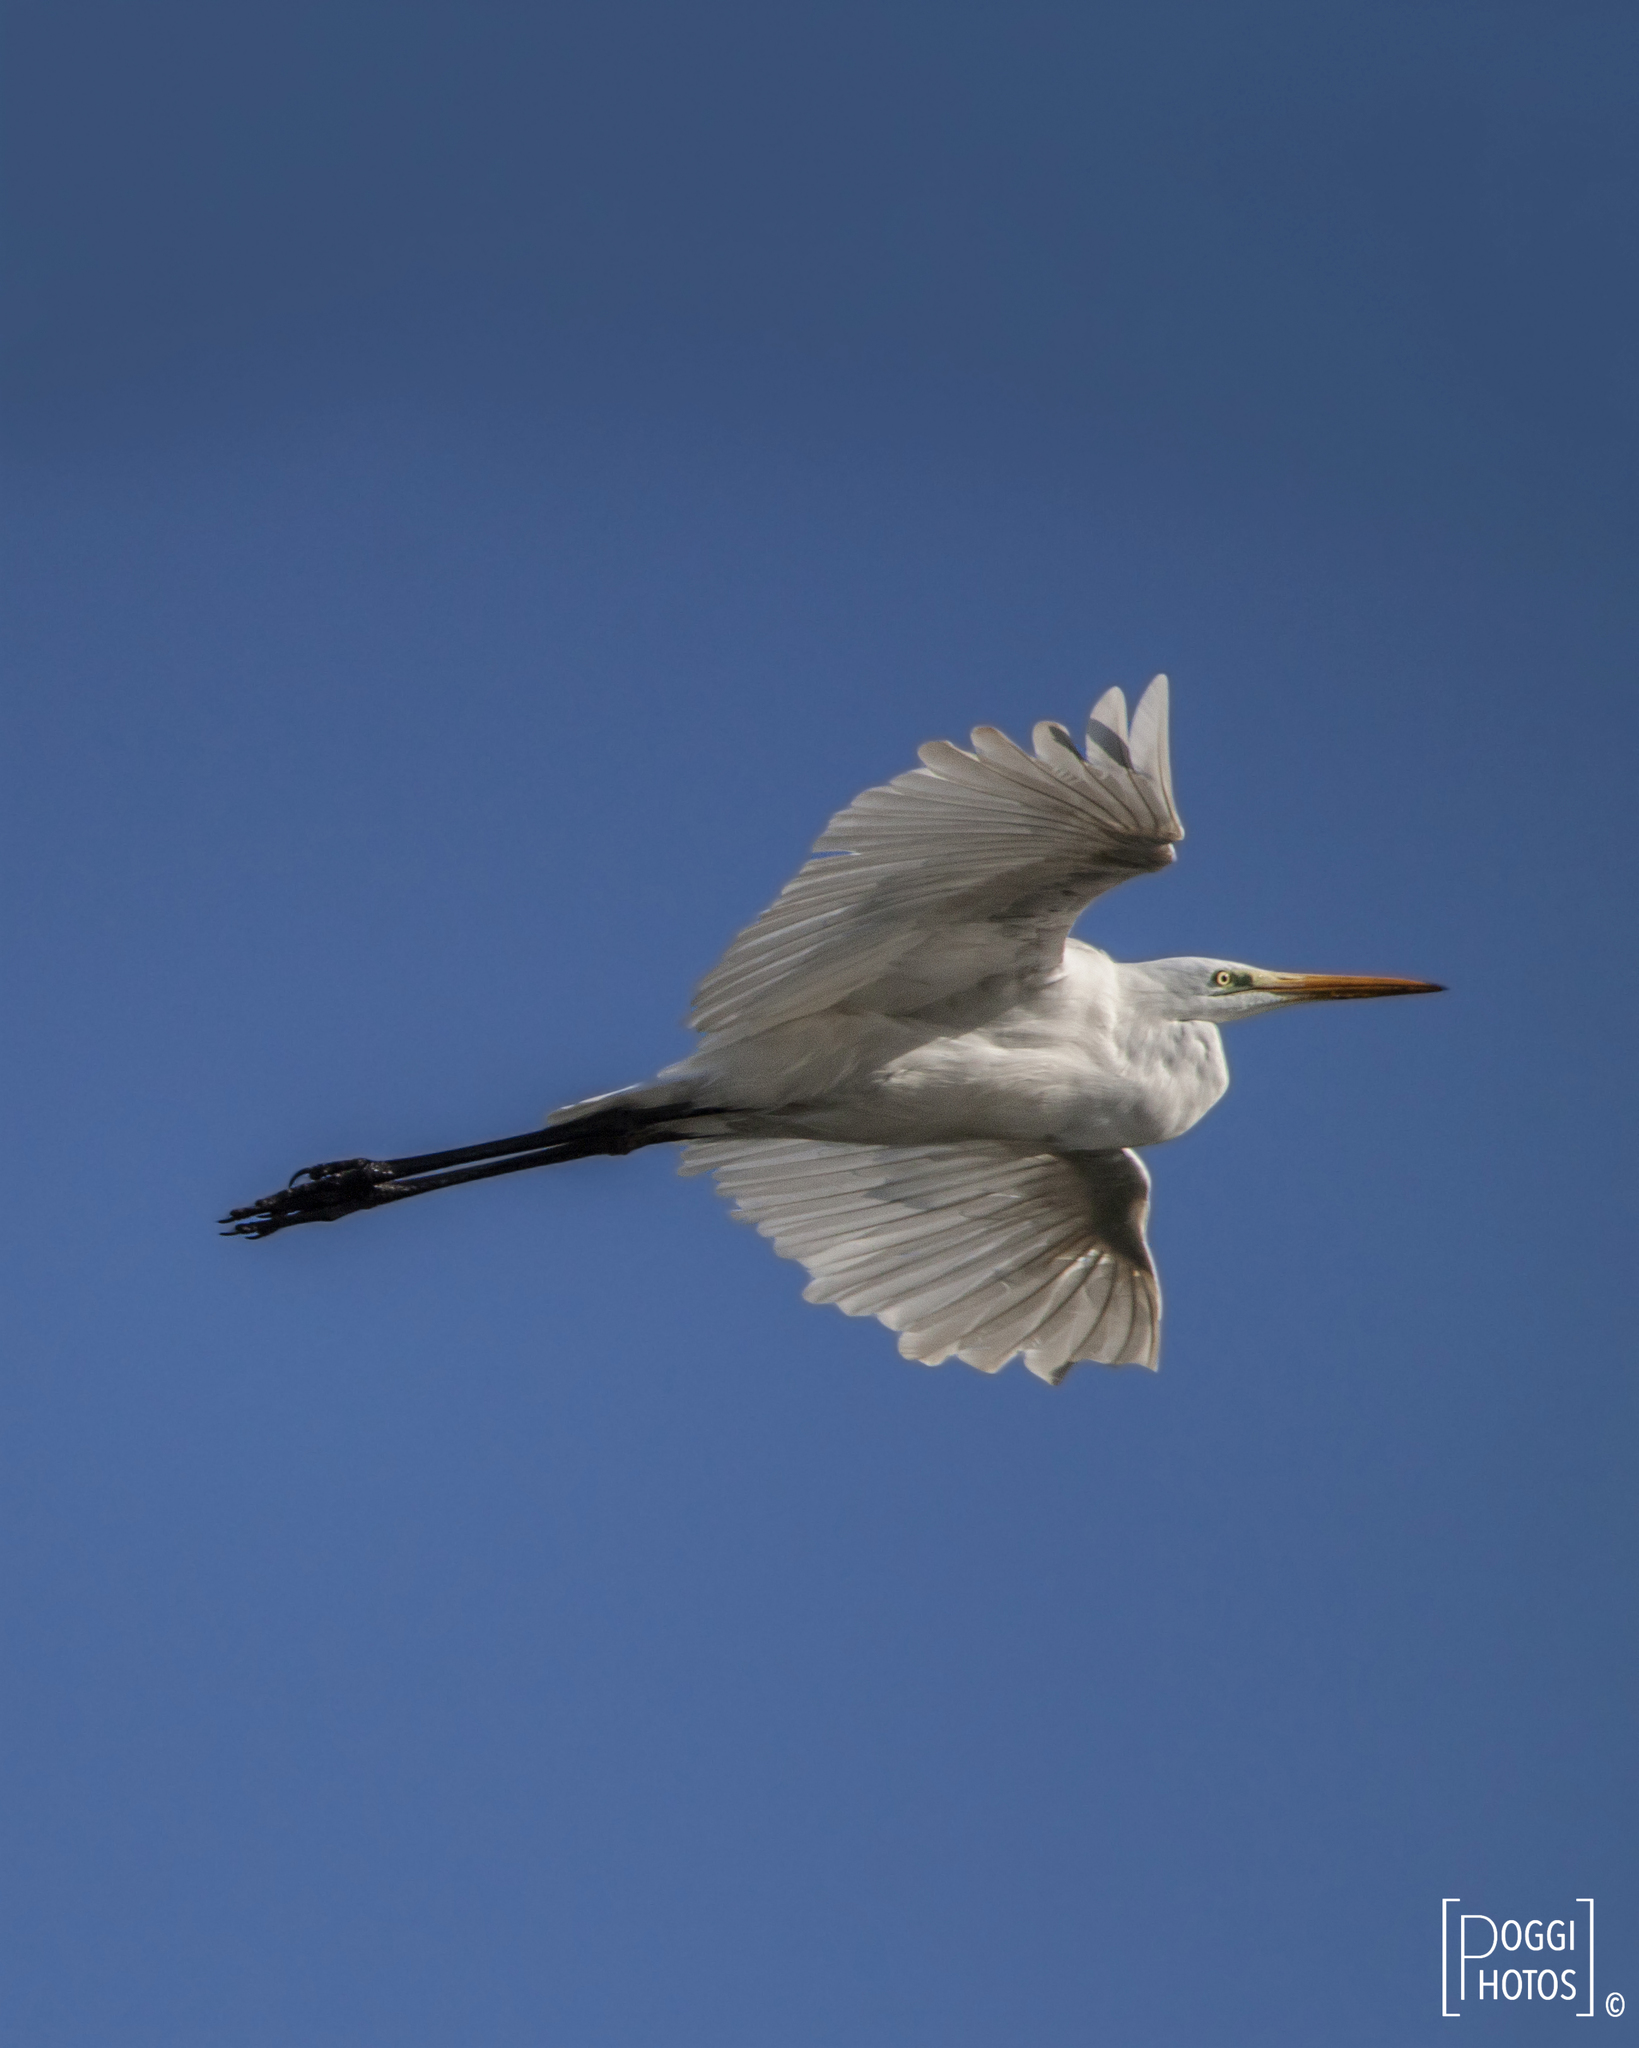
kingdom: Animalia
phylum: Chordata
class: Aves
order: Pelecaniformes
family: Ardeidae
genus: Ardea
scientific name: Ardea alba
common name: Great egret
